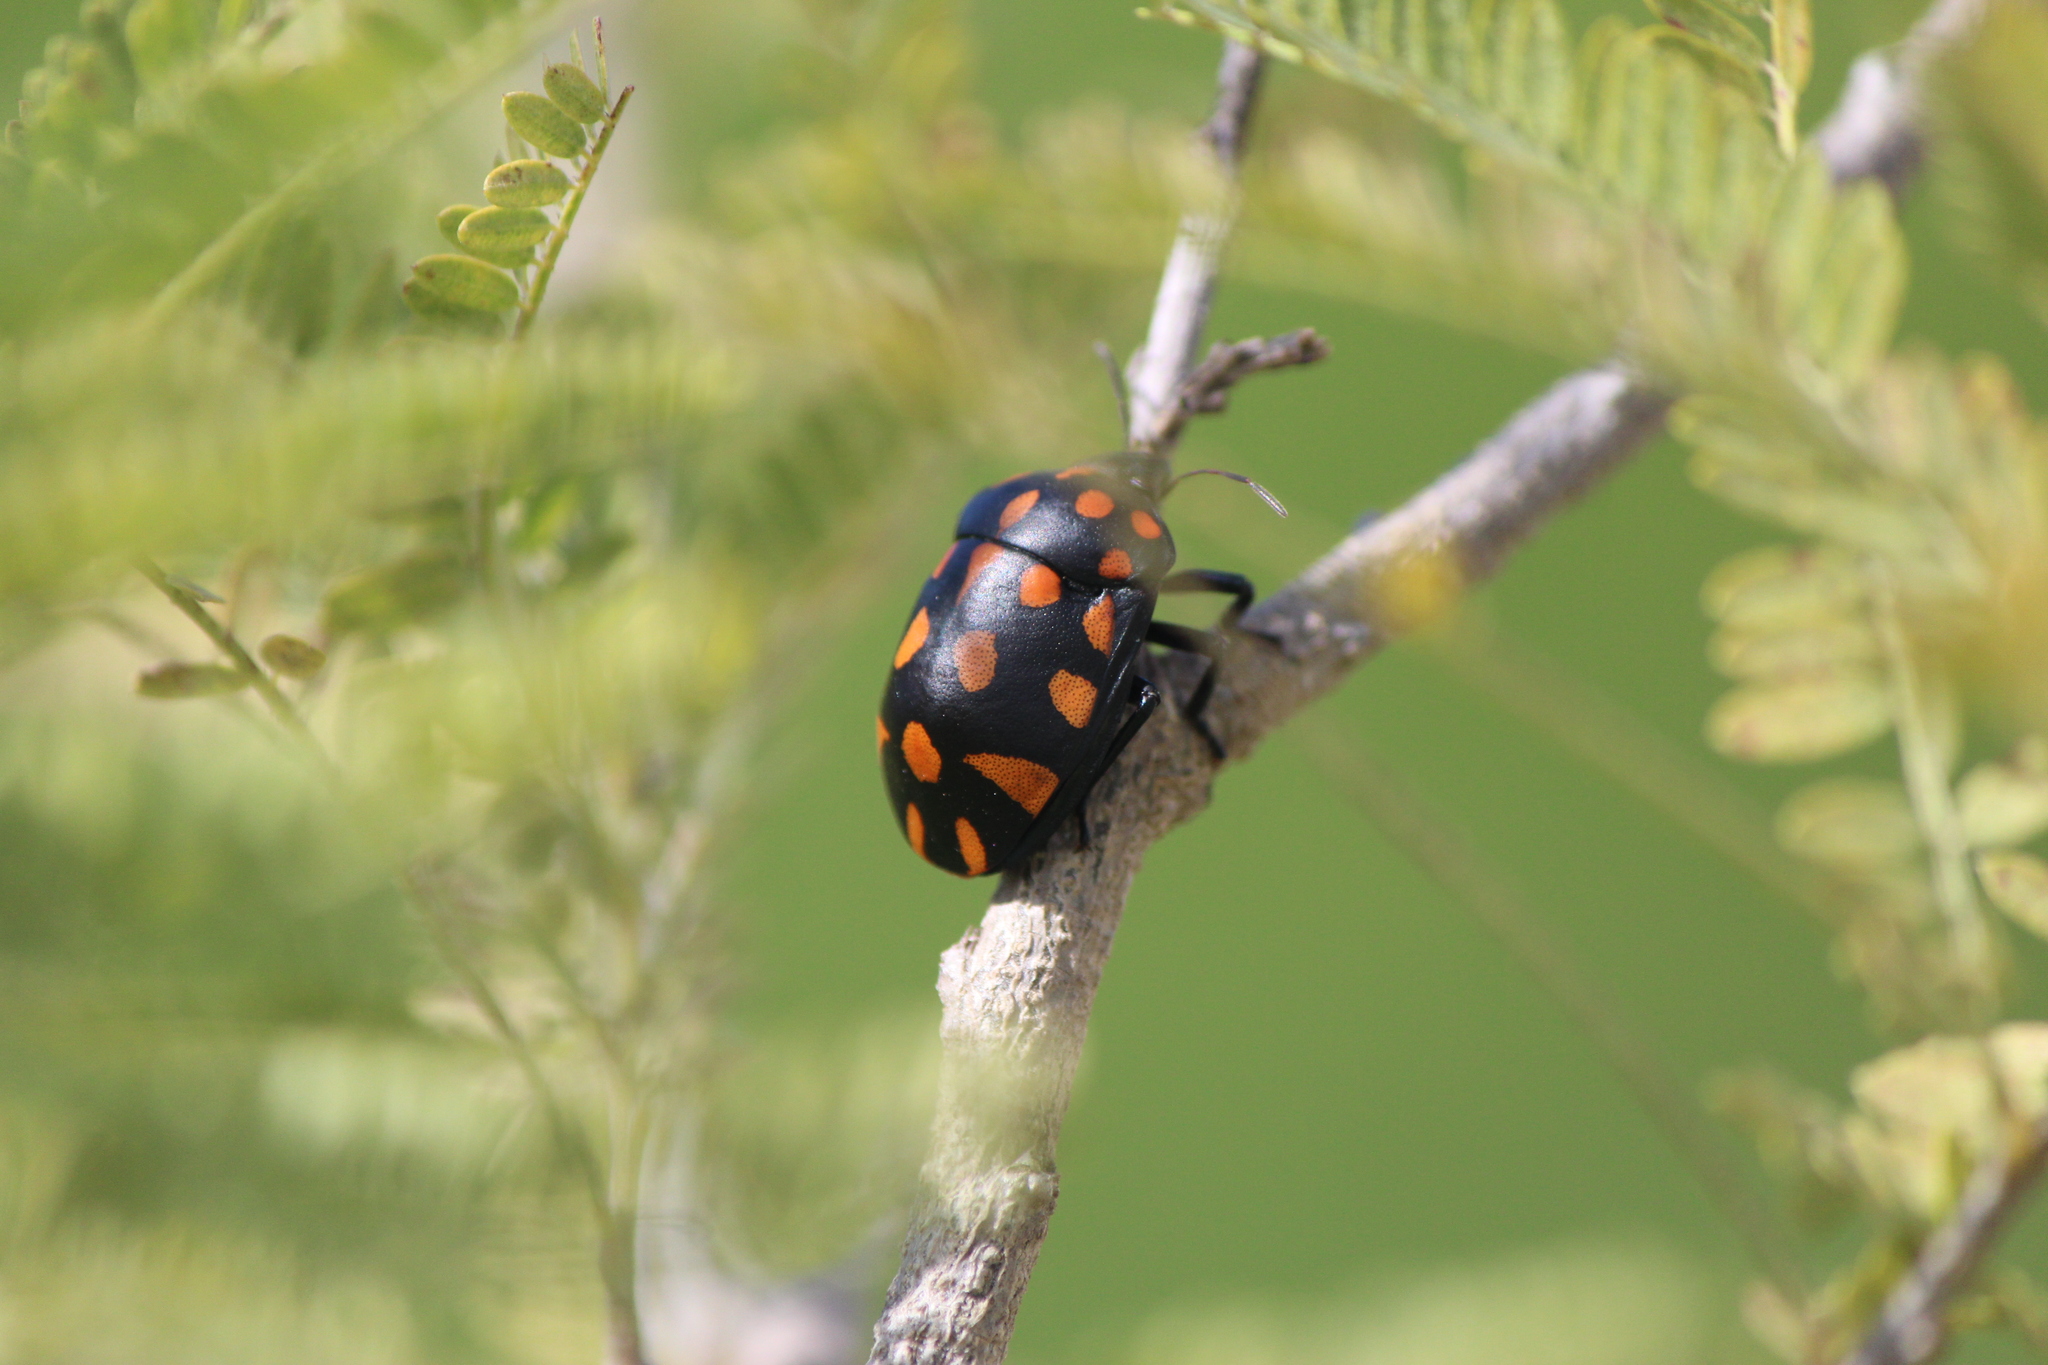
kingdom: Animalia
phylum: Arthropoda
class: Insecta
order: Hemiptera
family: Scutelleridae
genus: Pachycoris
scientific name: Pachycoris klugii
